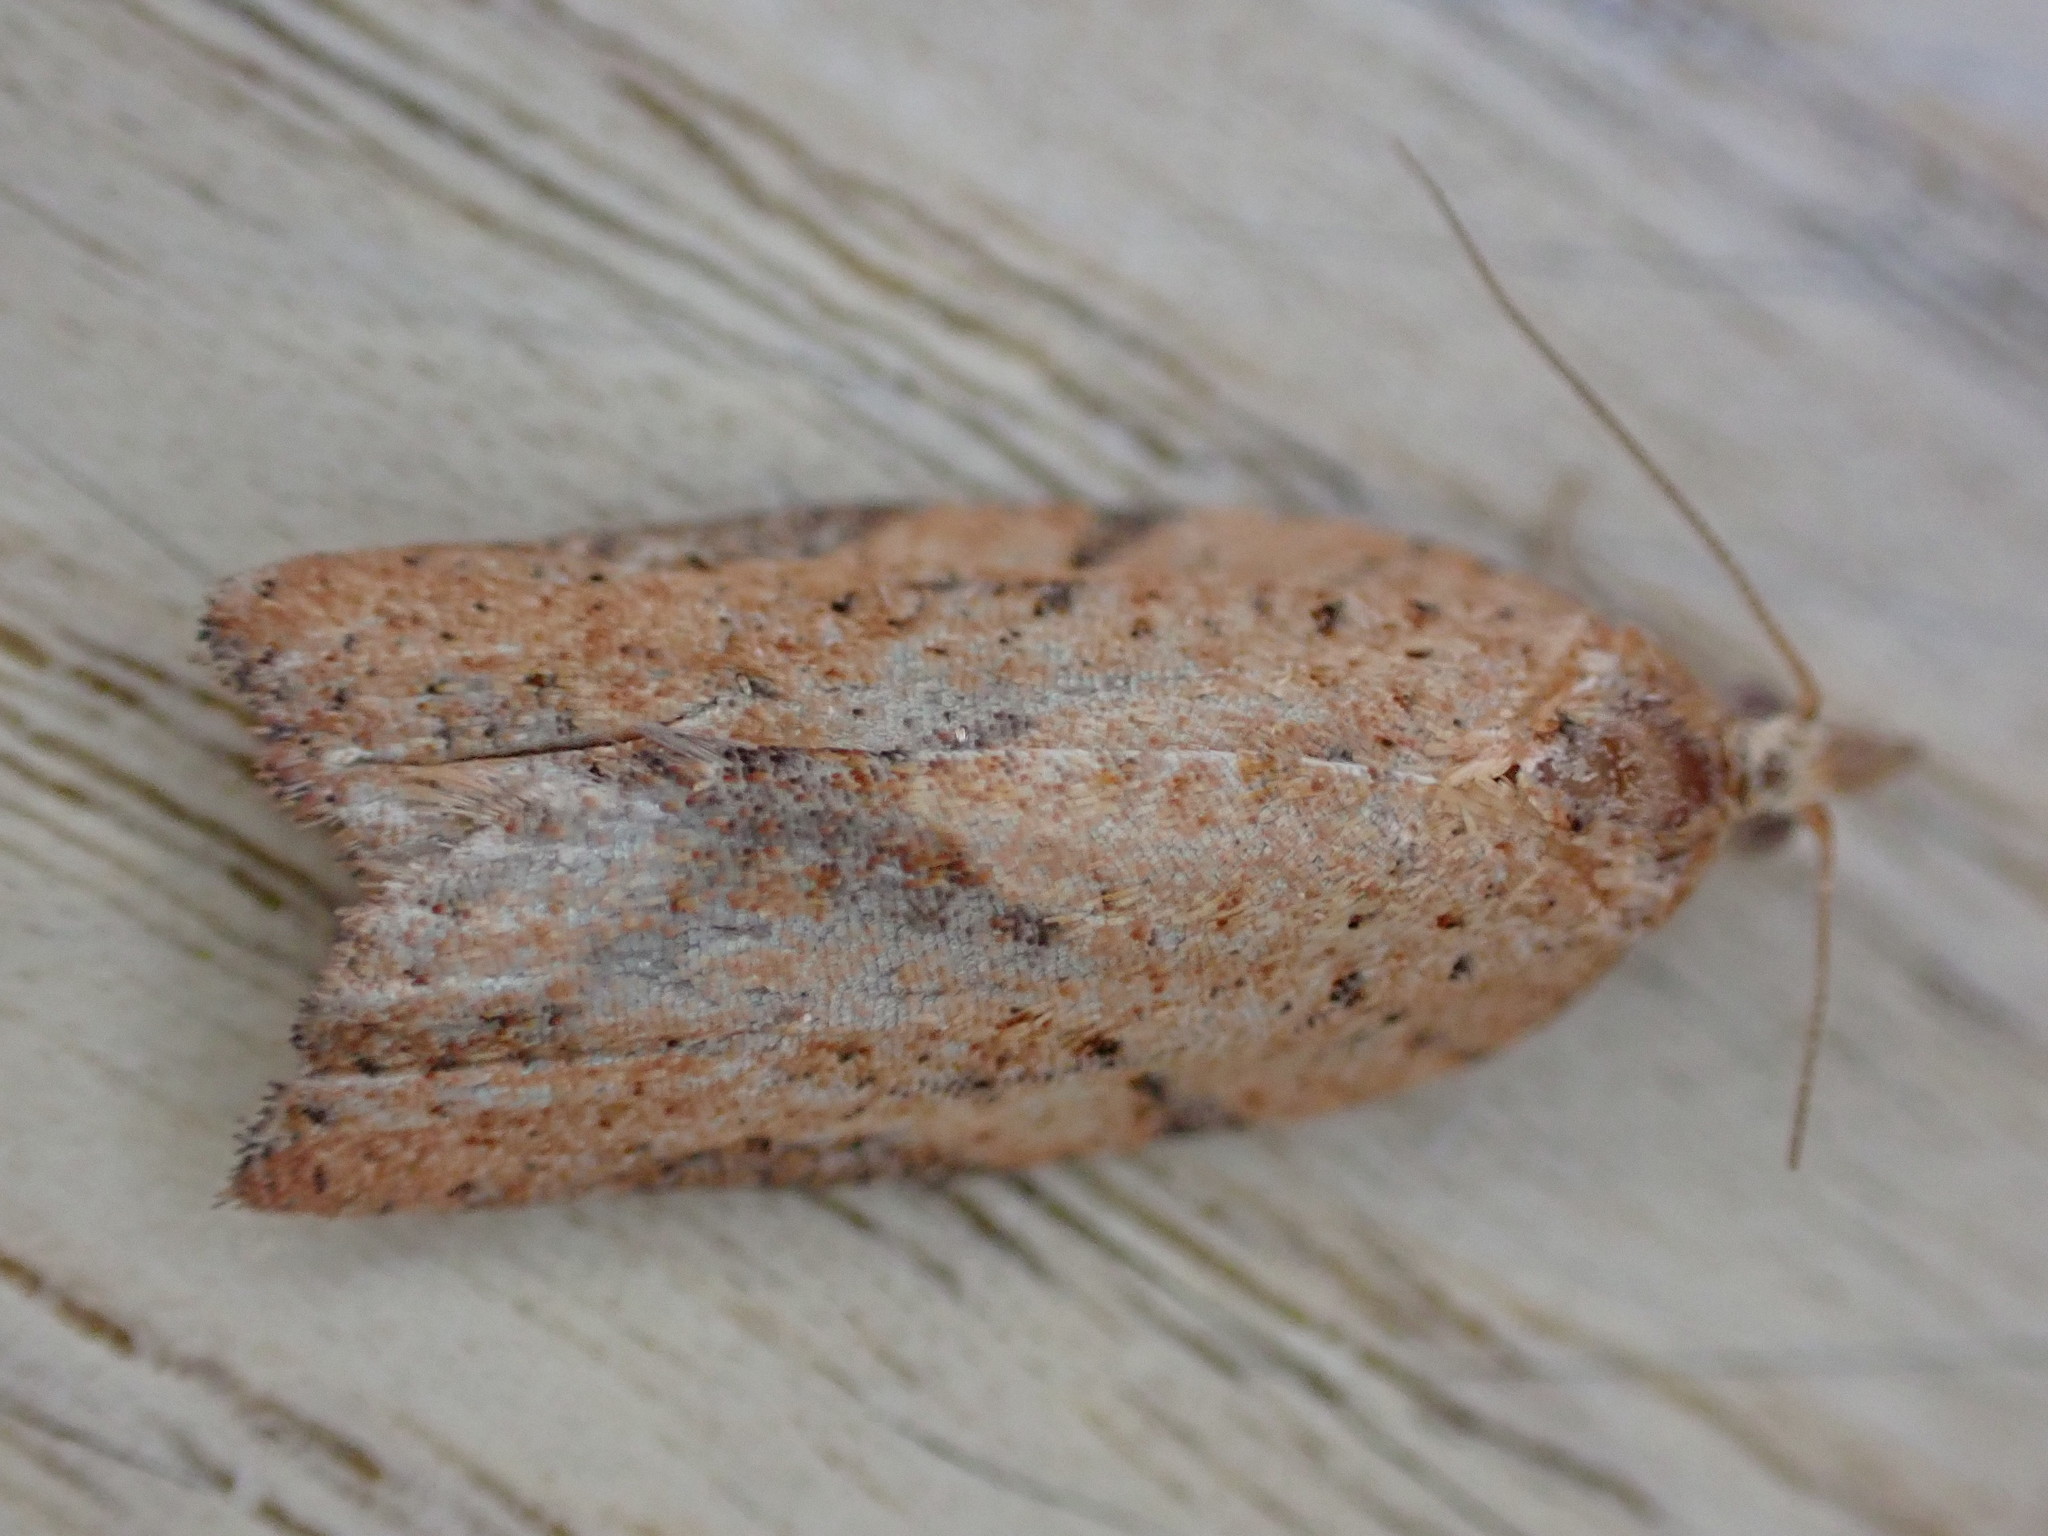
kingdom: Animalia
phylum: Arthropoda
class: Insecta
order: Lepidoptera
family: Tortricidae
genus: Epiphyas
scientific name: Epiphyas postvittana
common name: Light brown apple moth
